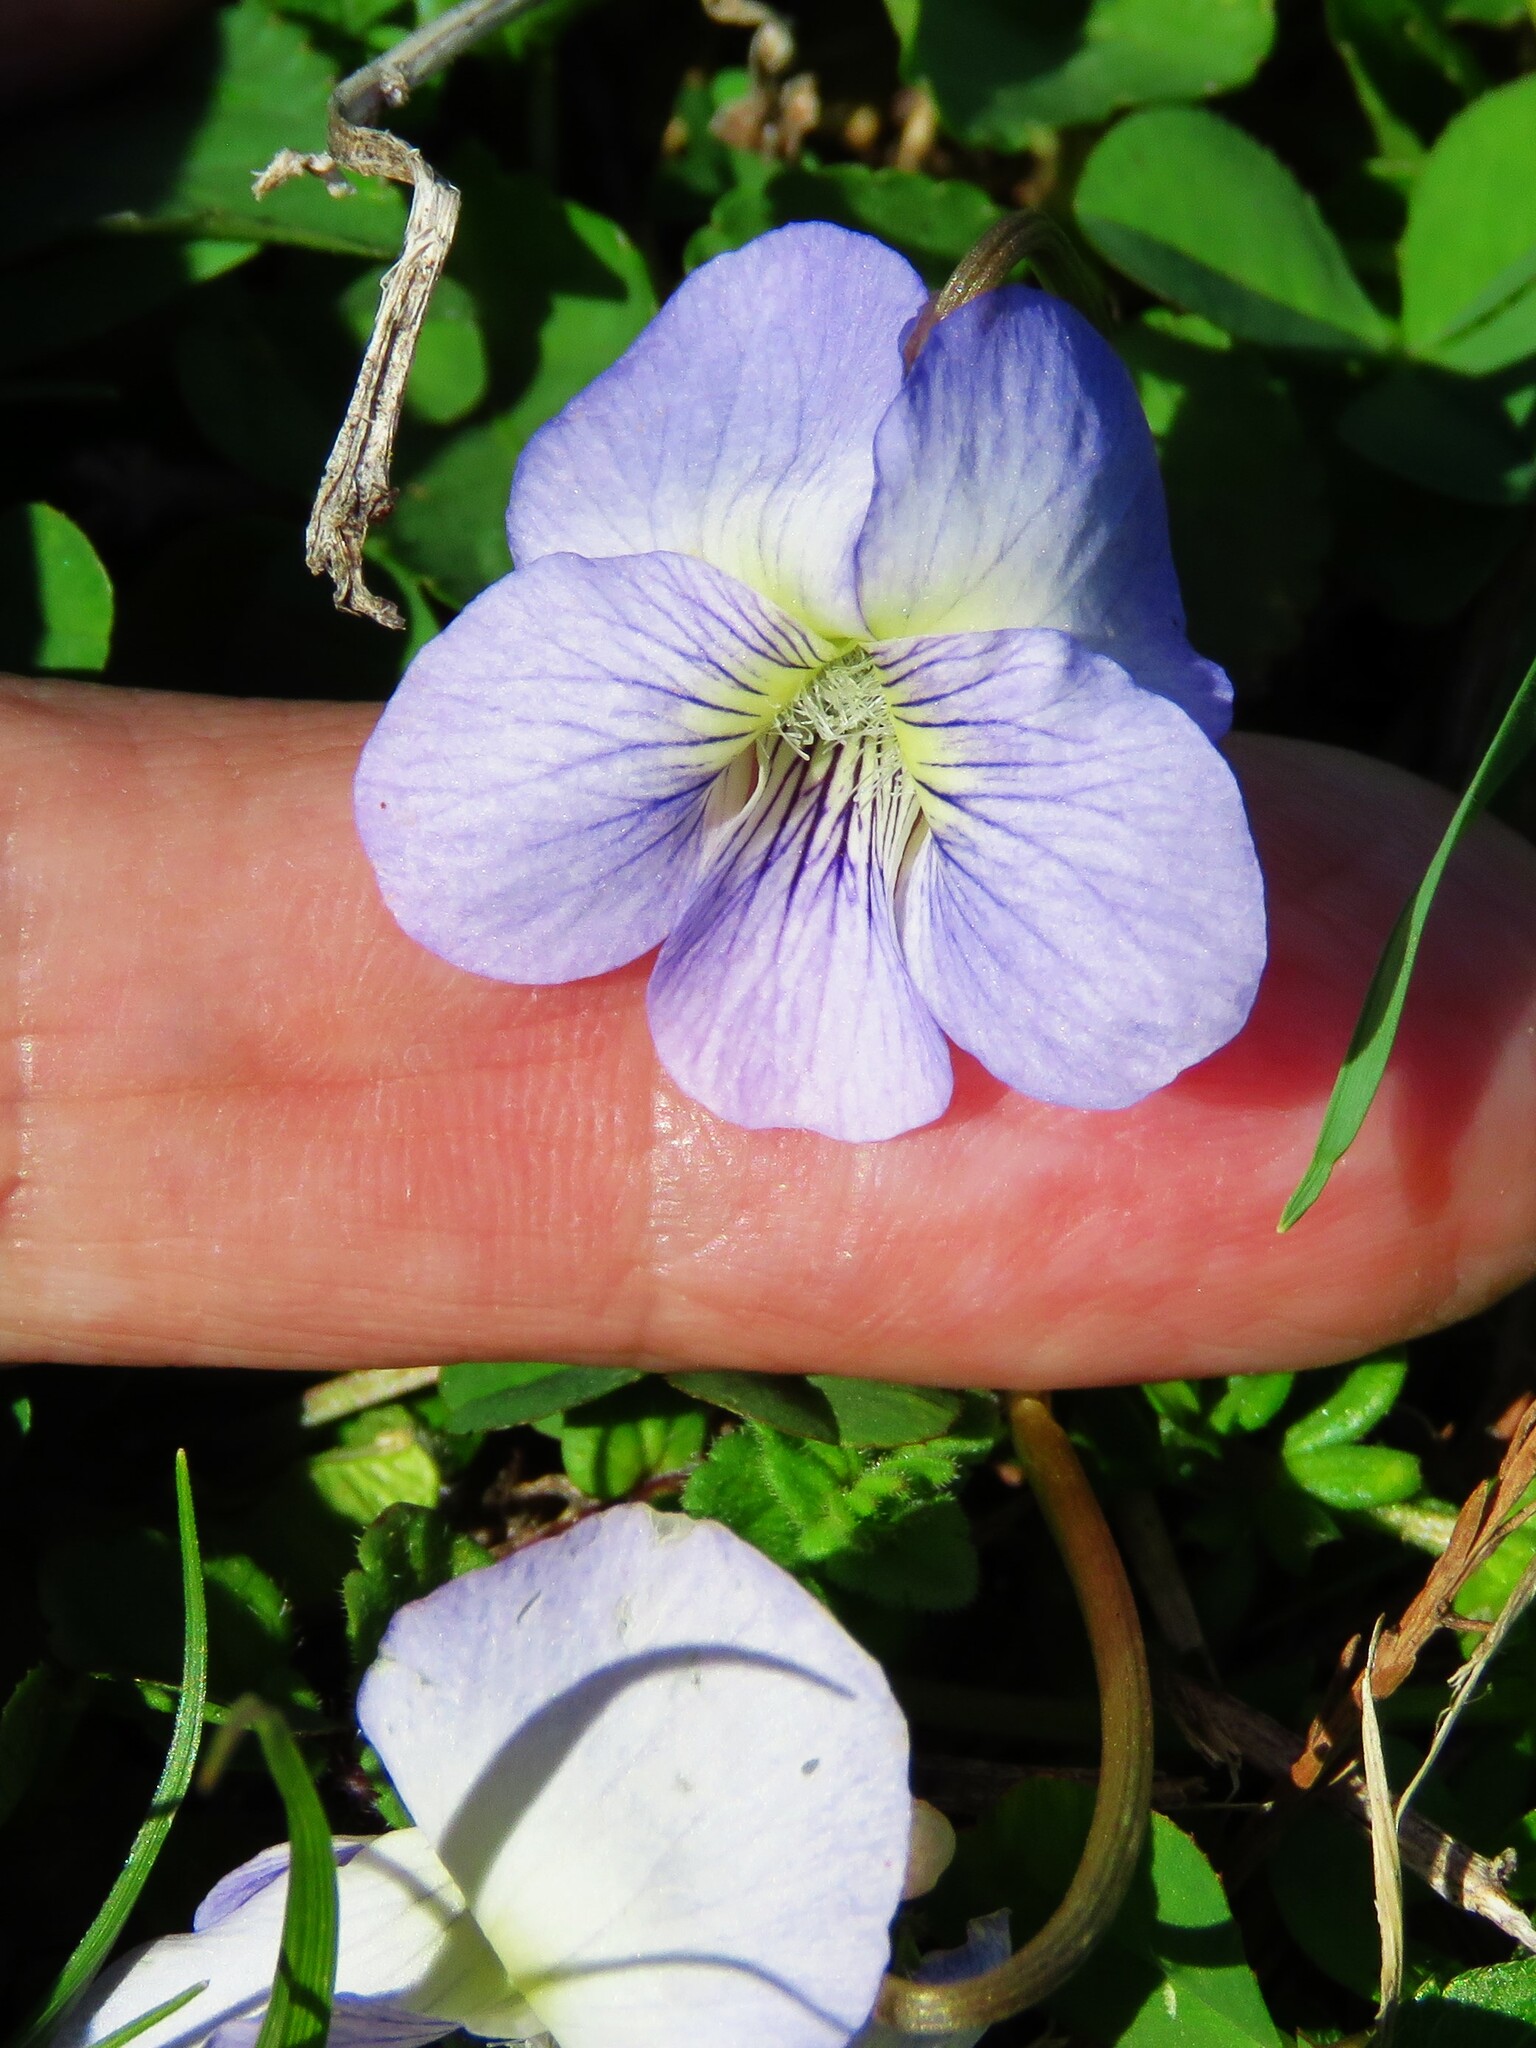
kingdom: Plantae
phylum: Tracheophyta
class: Magnoliopsida
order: Malpighiales
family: Violaceae
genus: Viola
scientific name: Viola missouriensis
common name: Missouri violet
